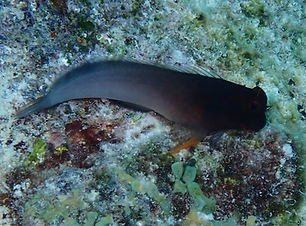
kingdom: Animalia
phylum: Chordata
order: Perciformes
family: Blenniidae
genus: Ophioblennius
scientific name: Ophioblennius macclurei
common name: Redlip blenny
